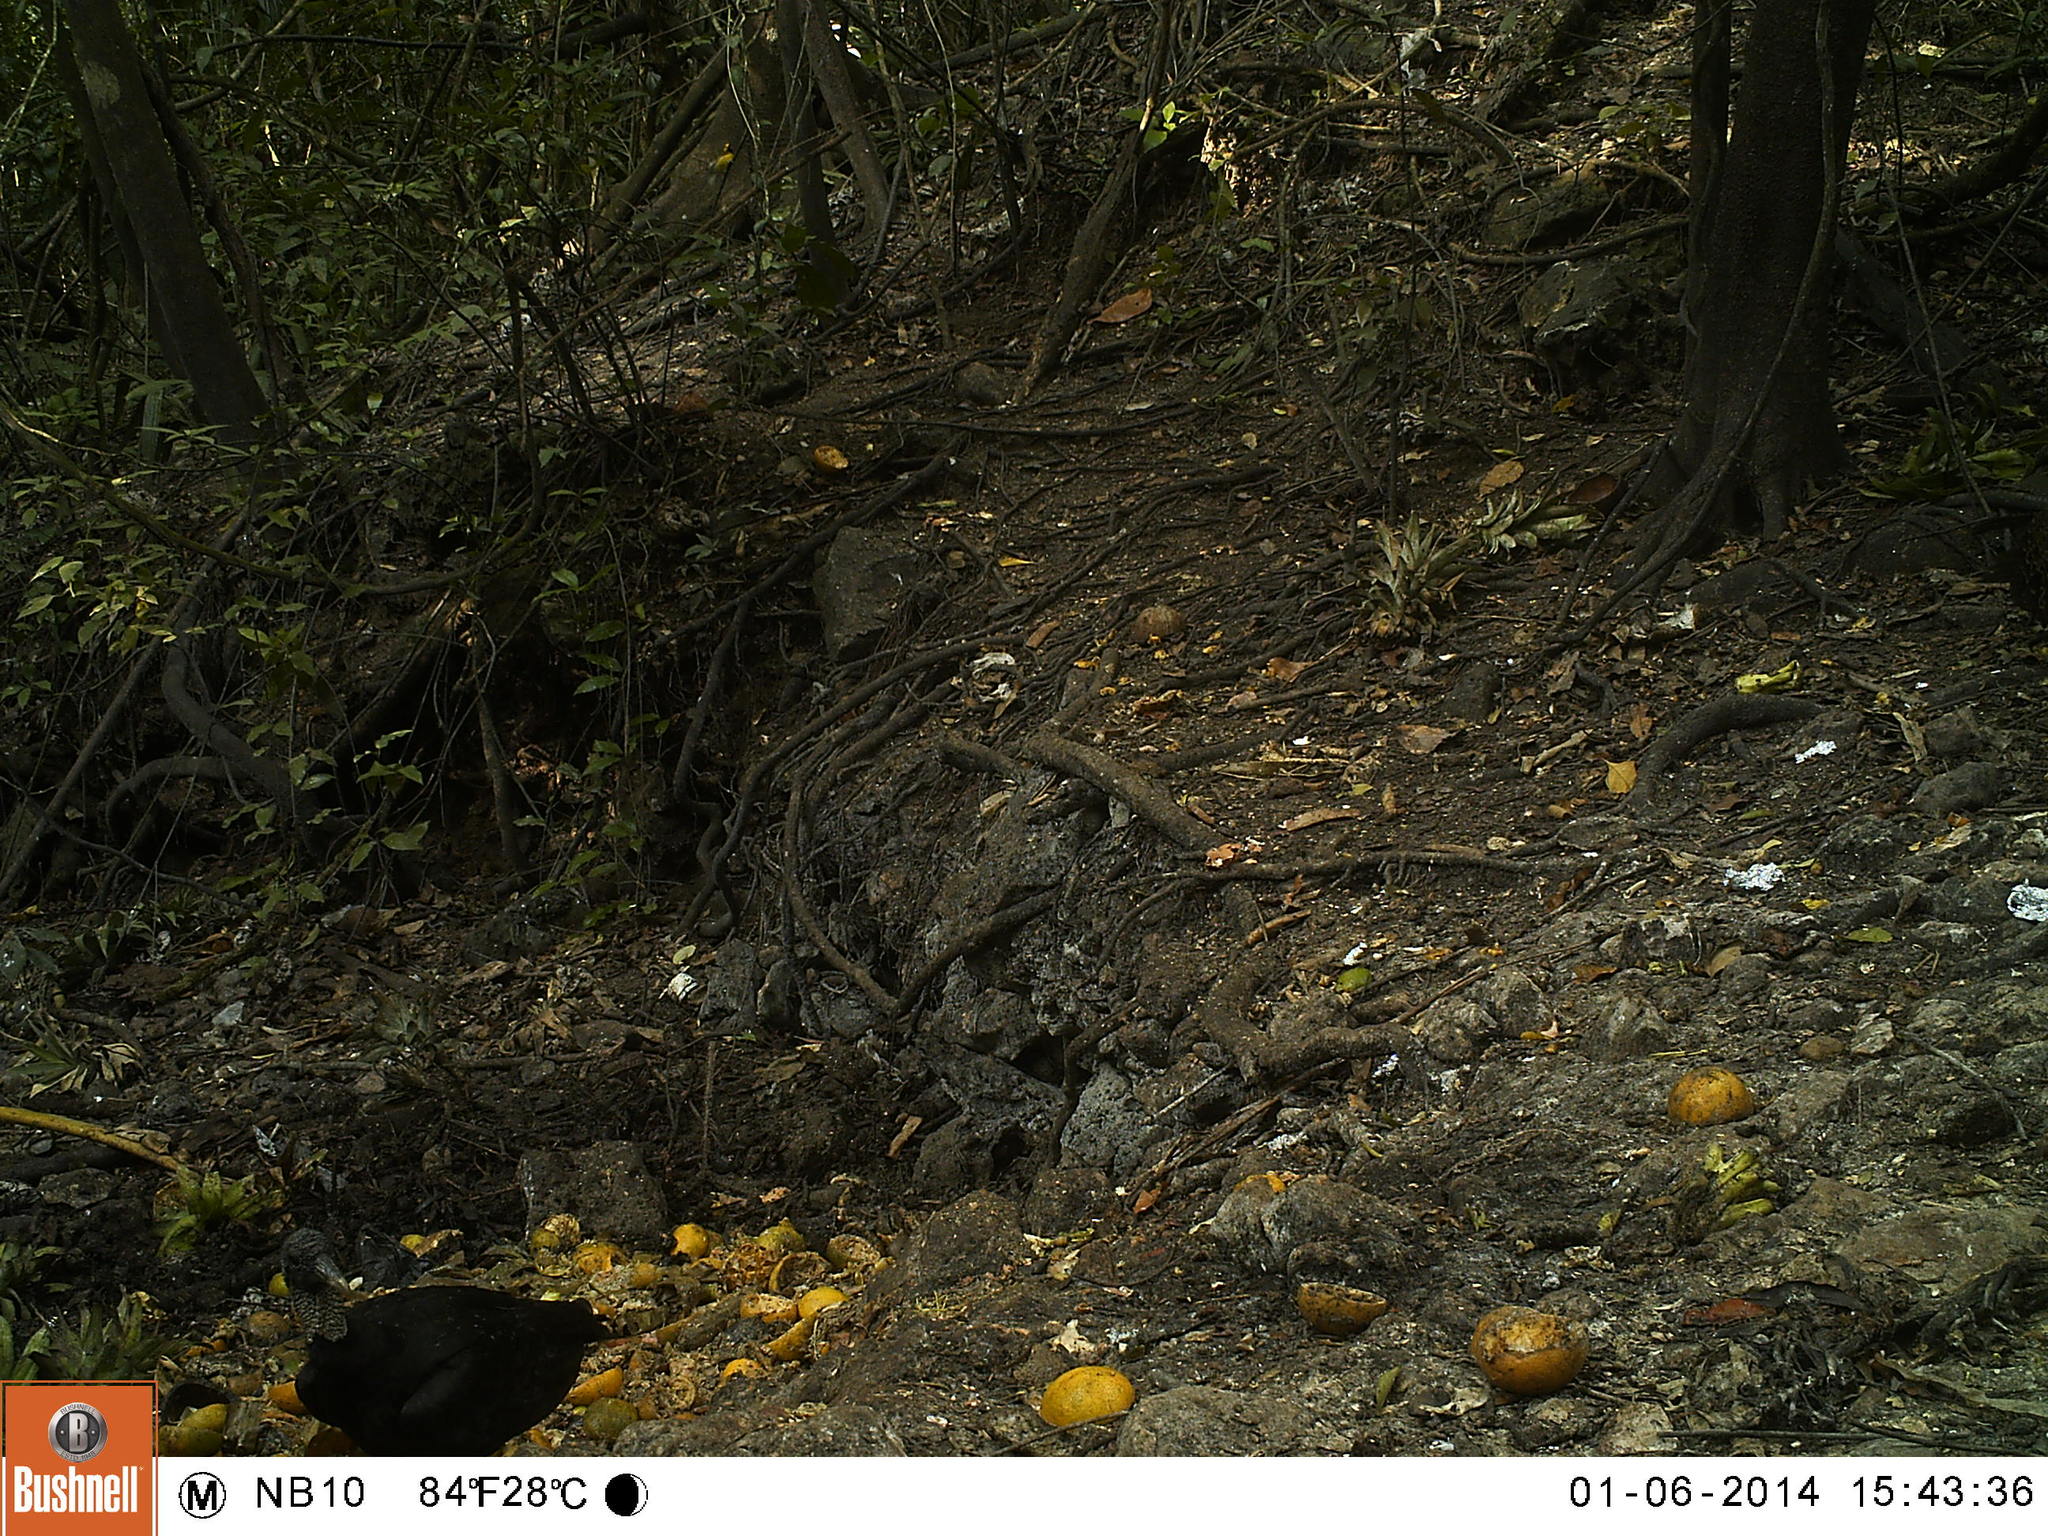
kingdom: Animalia
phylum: Chordata
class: Aves
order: Accipitriformes
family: Cathartidae
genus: Coragyps
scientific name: Coragyps atratus
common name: Black vulture
